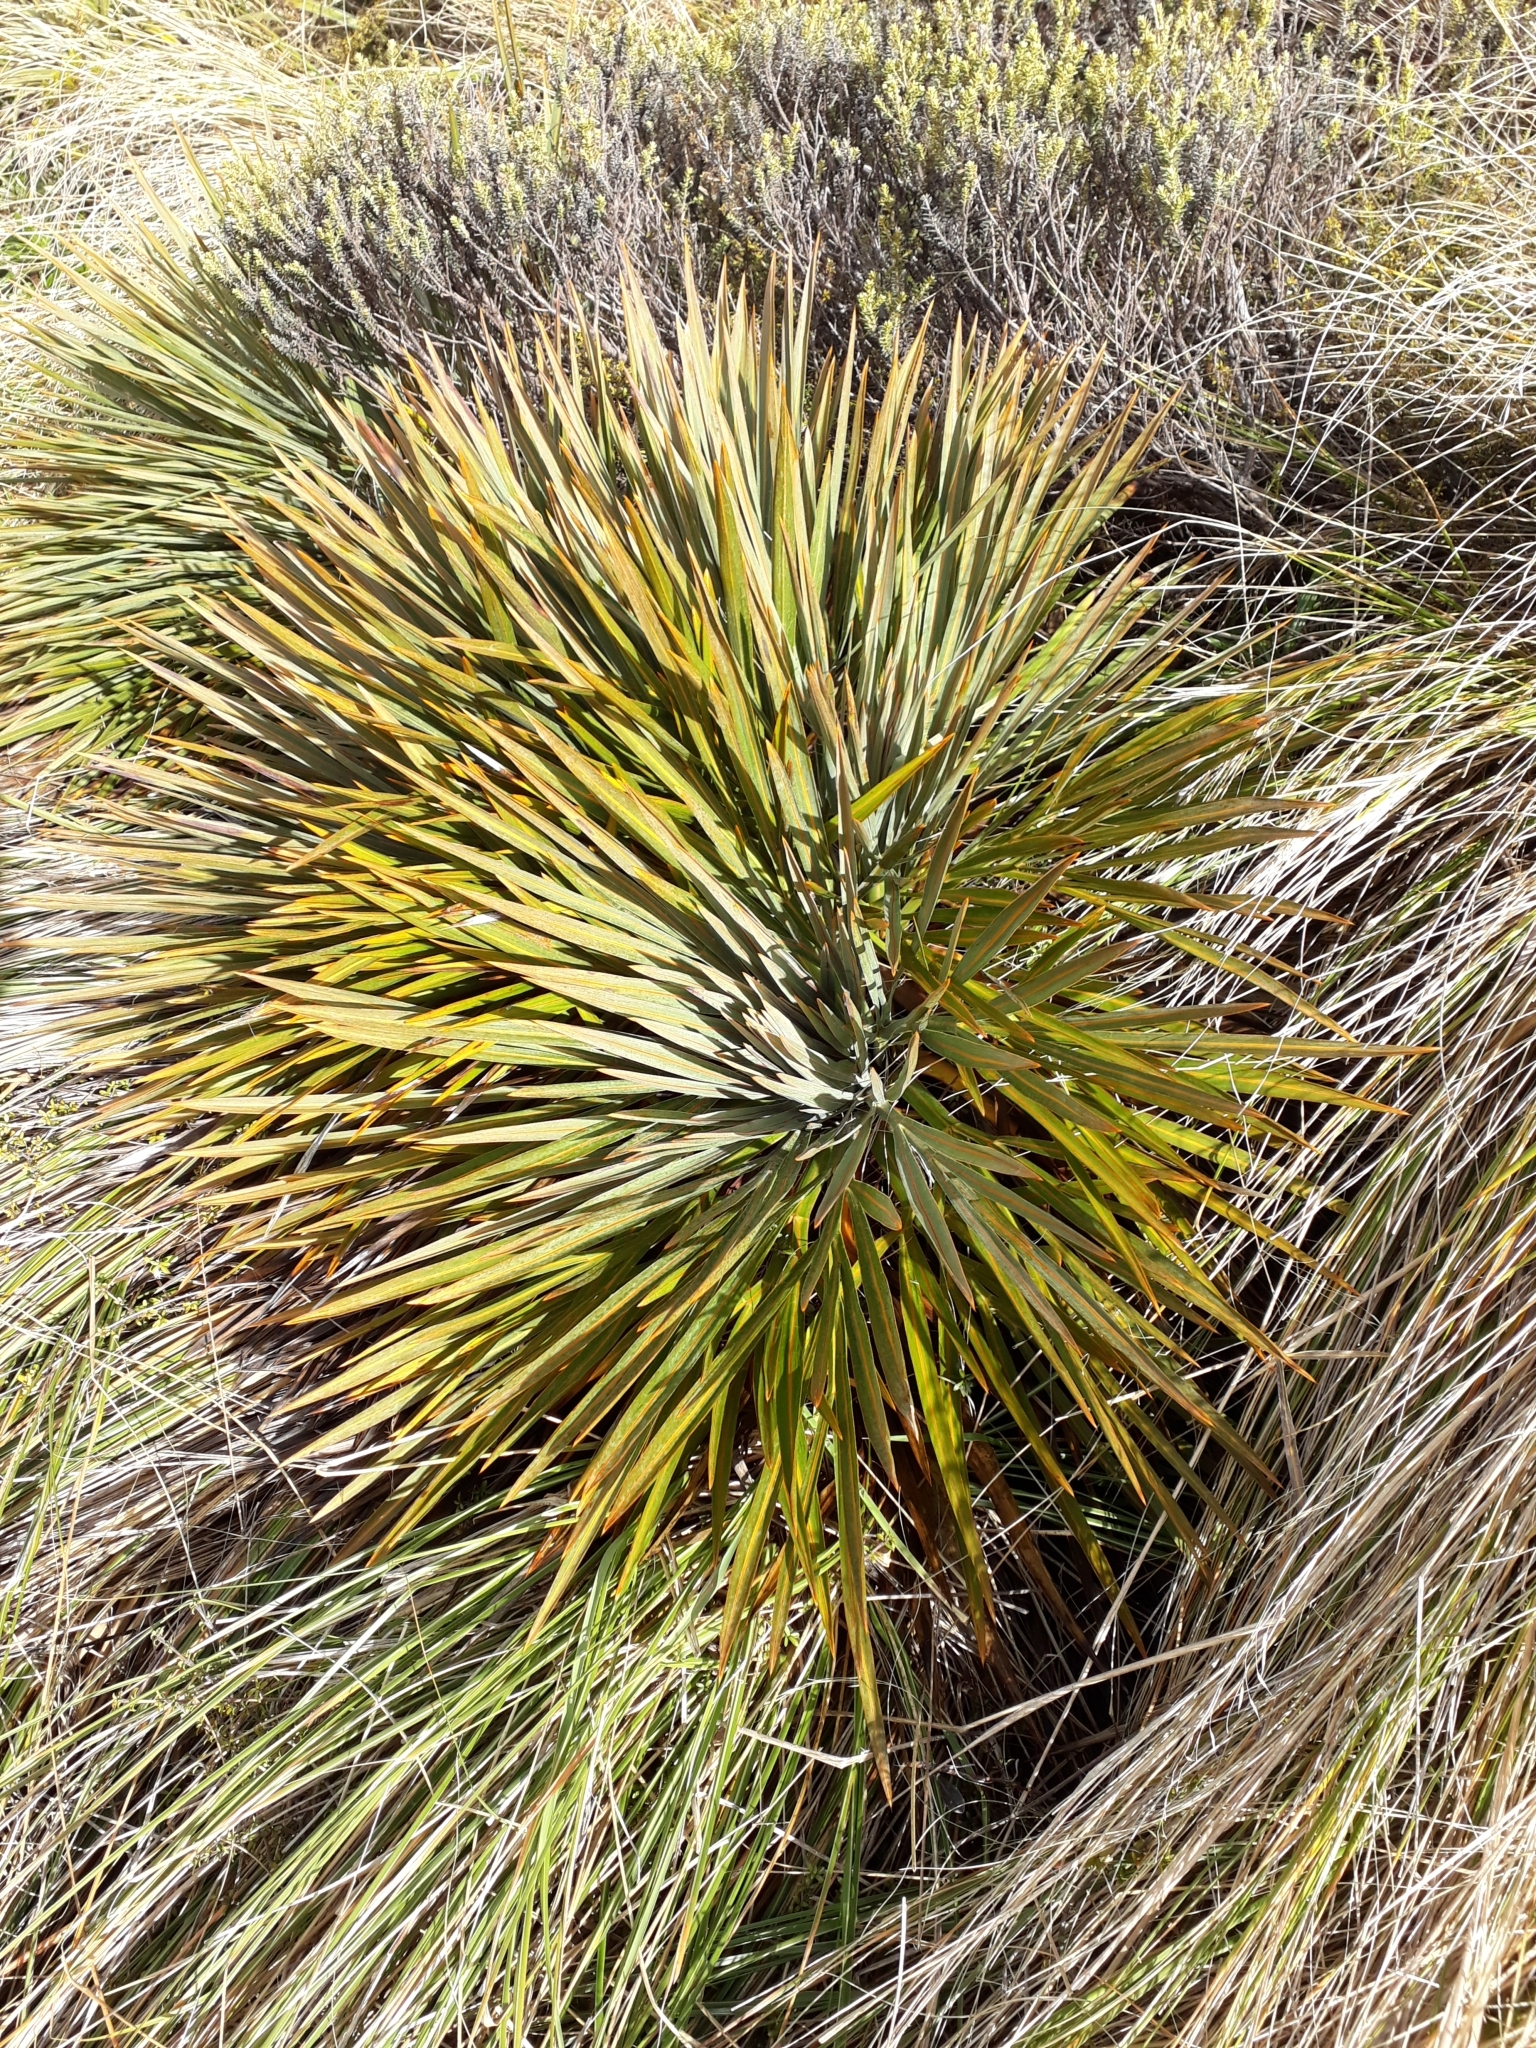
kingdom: Plantae
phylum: Tracheophyta
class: Magnoliopsida
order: Apiales
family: Apiaceae
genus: Aciphylla
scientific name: Aciphylla colensoi
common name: Colenso's spaniard
